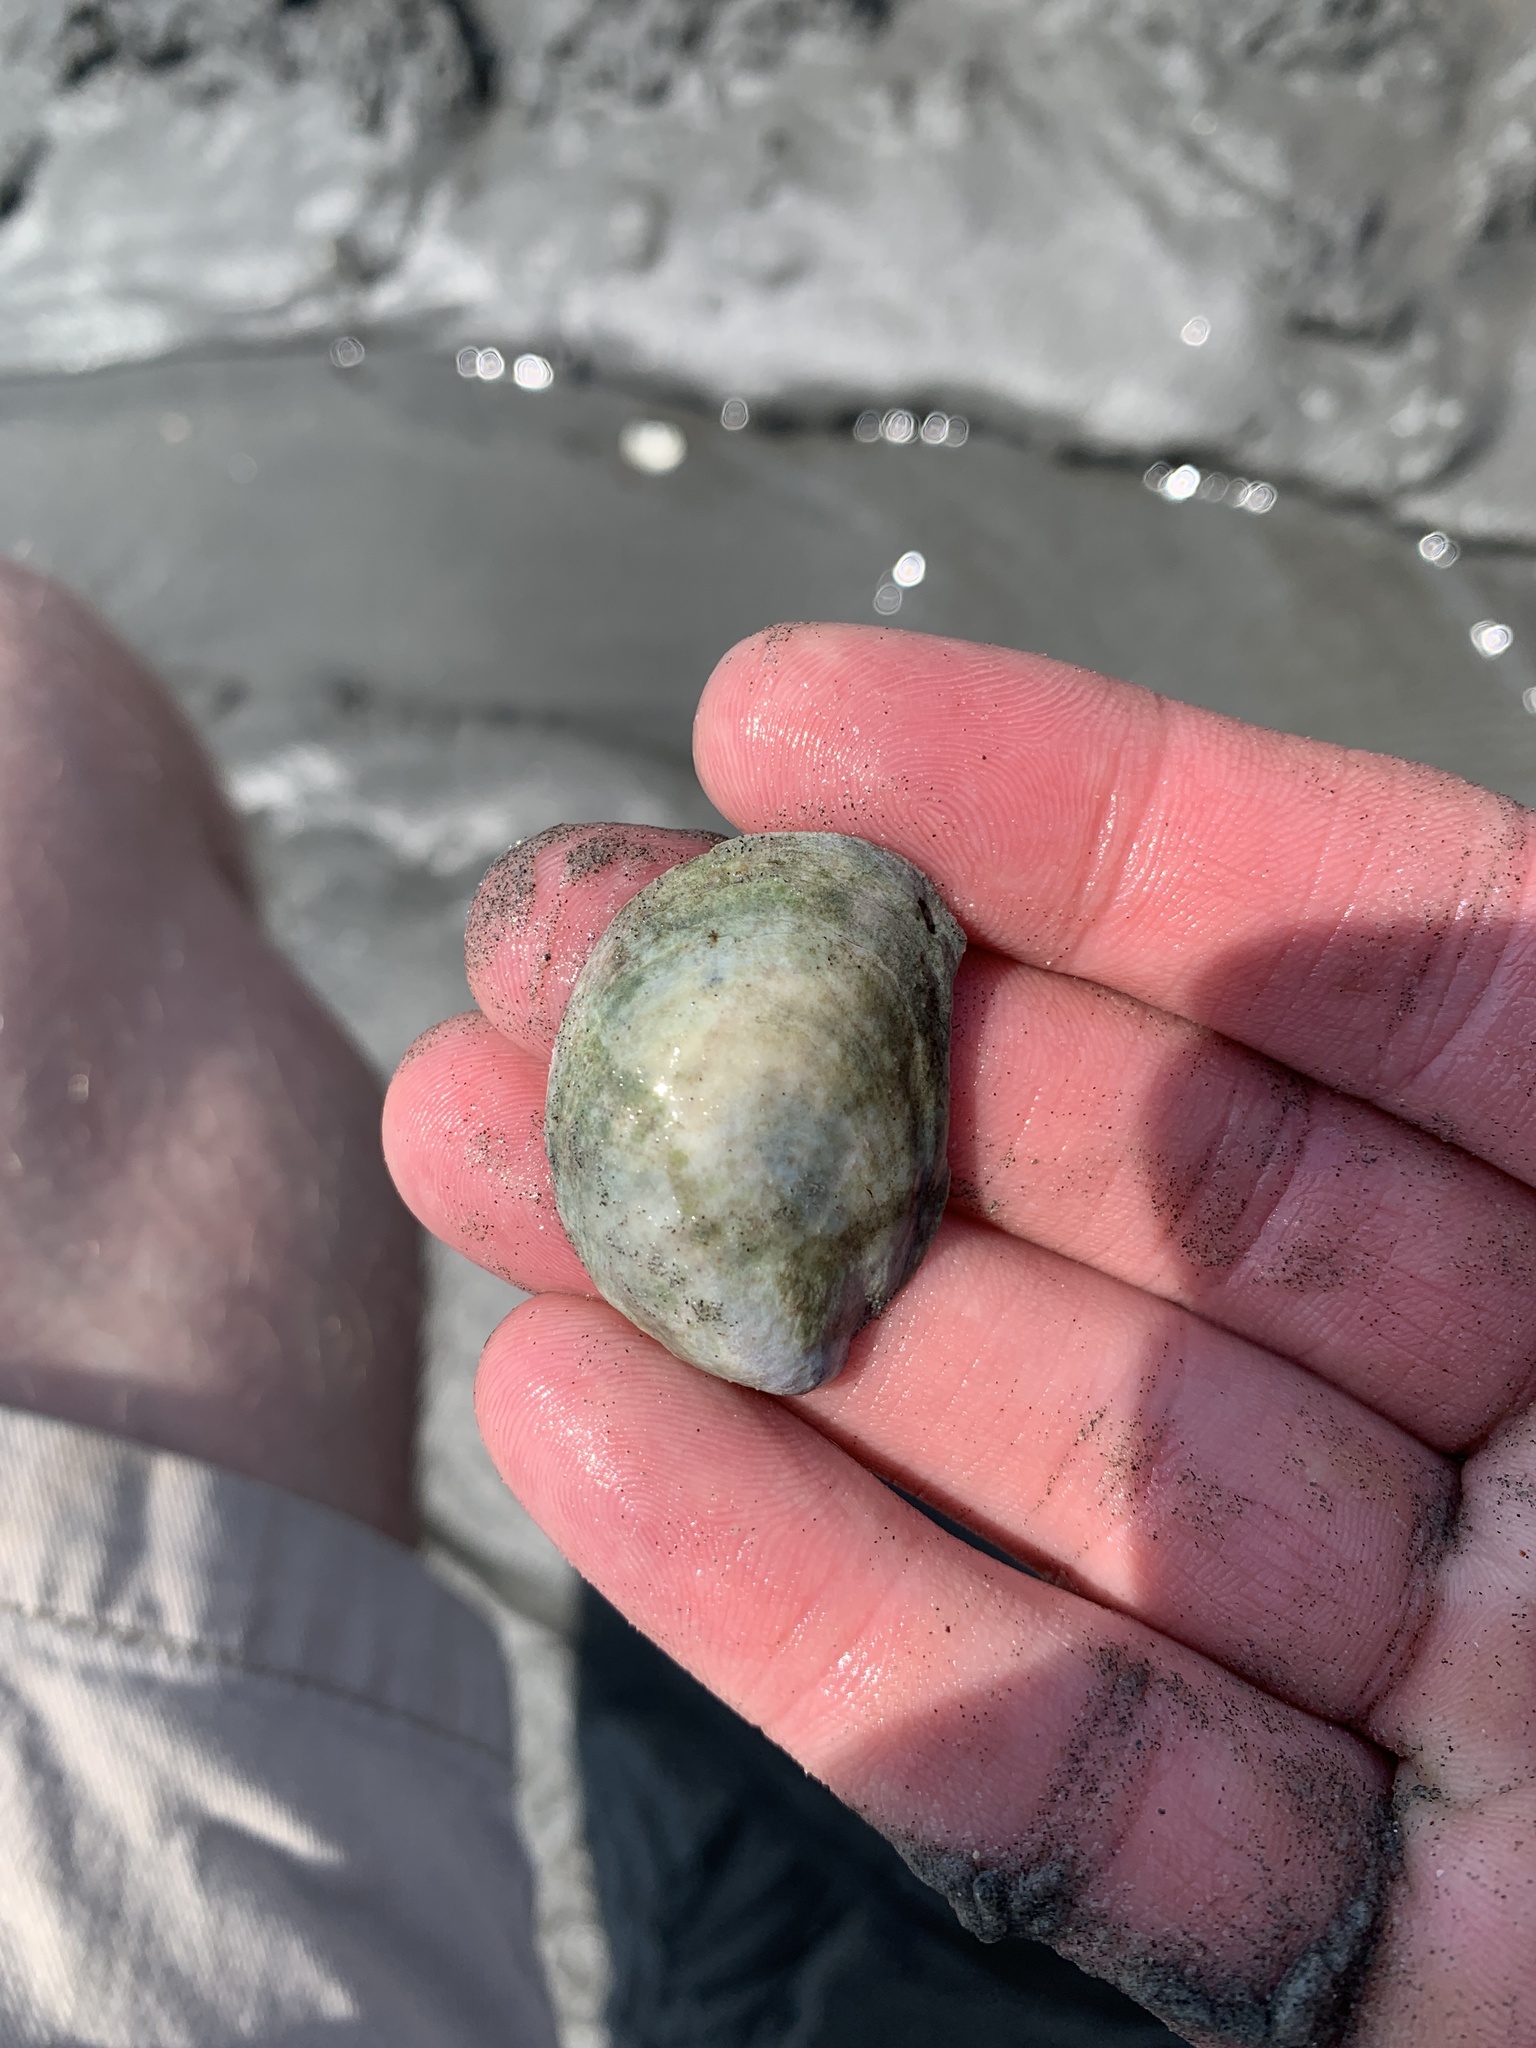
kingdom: Animalia
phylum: Mollusca
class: Gastropoda
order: Littorinimorpha
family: Calyptraeidae
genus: Crepidula
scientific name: Crepidula fornicata
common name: Slipper limpet
